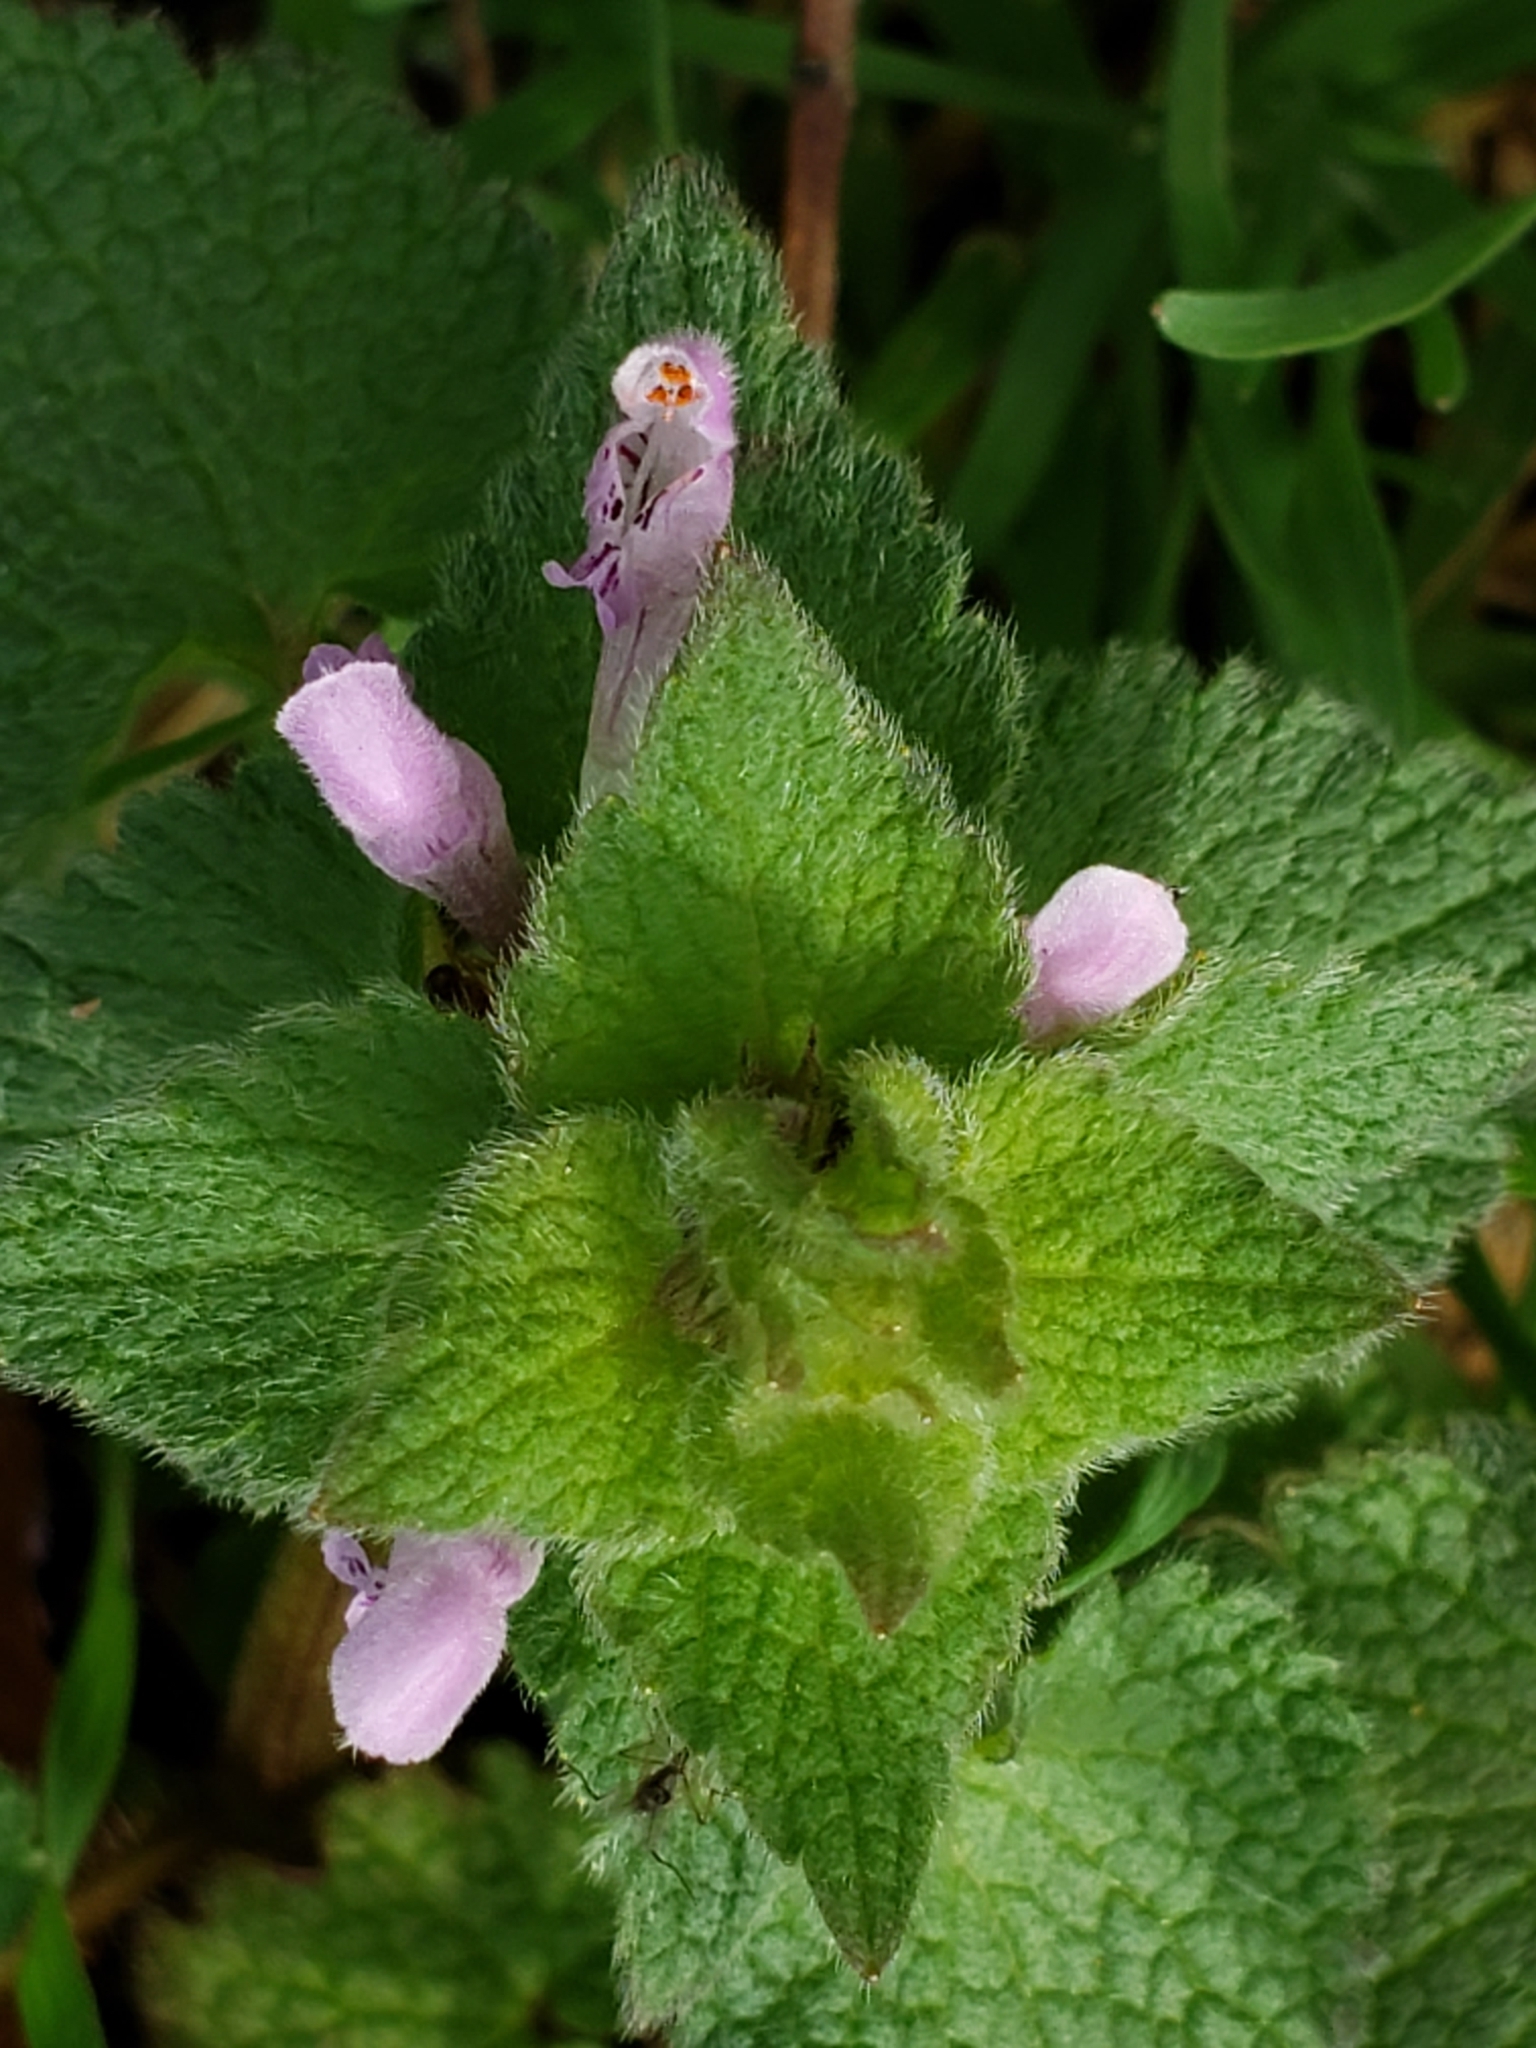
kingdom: Plantae
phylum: Tracheophyta
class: Magnoliopsida
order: Lamiales
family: Lamiaceae
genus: Lamium
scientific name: Lamium purpureum
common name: Red dead-nettle
